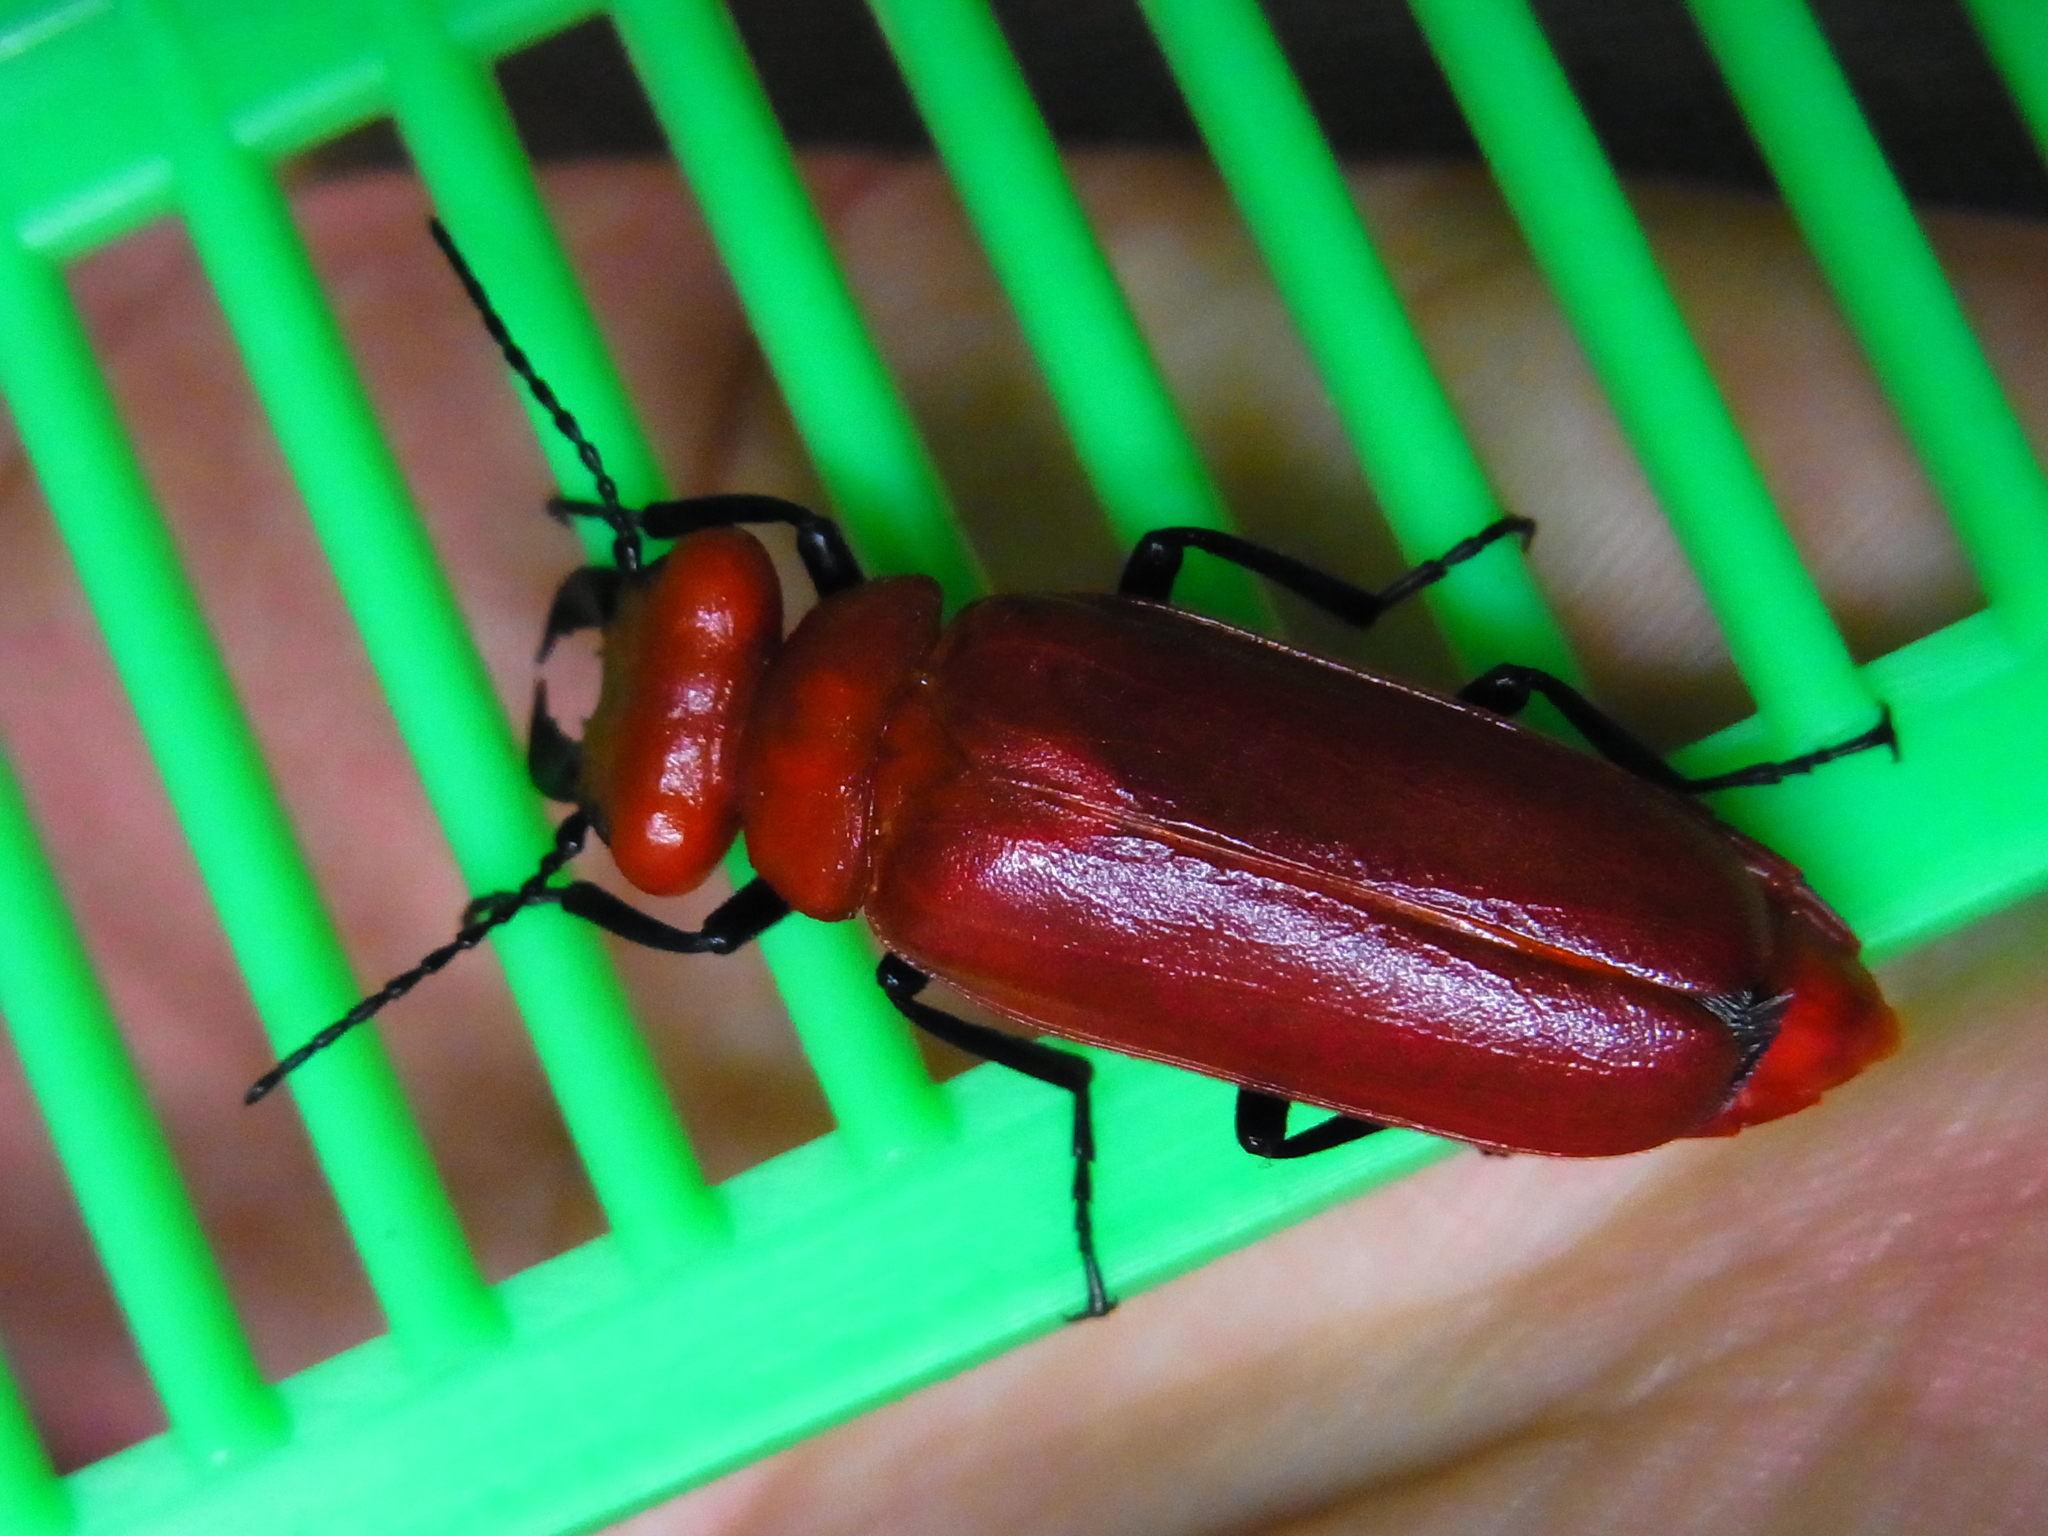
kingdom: Animalia
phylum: Arthropoda
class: Insecta
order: Coleoptera
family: Meloidae
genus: Synhoria
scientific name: Synhoria maxillosa
